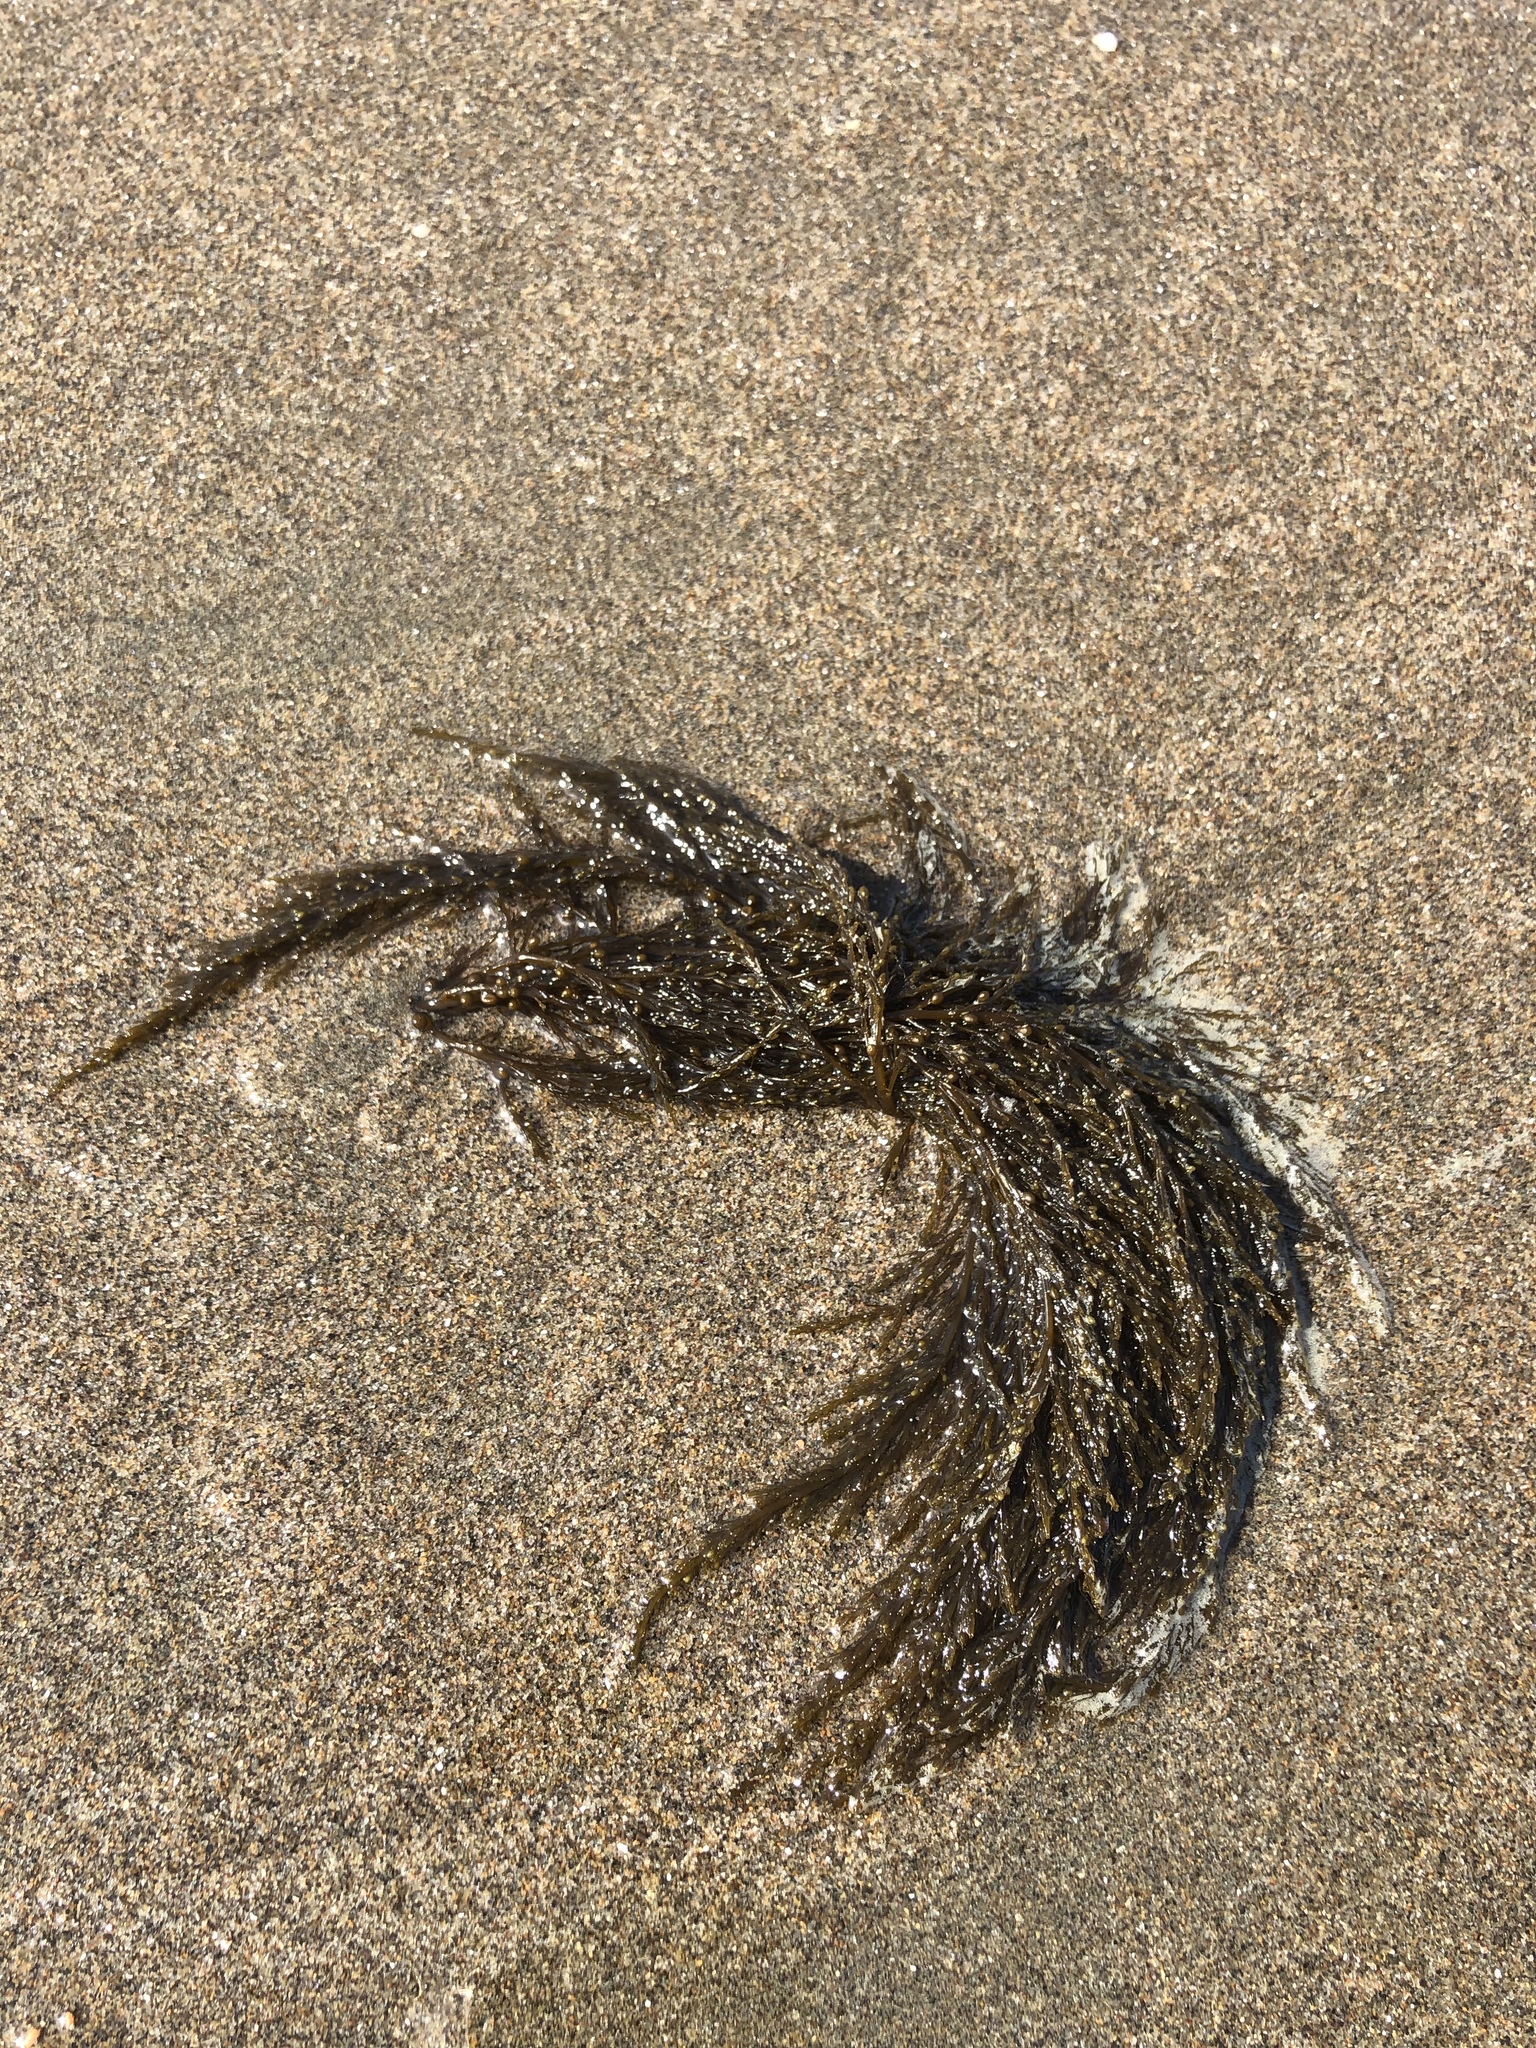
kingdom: Chromista
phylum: Ochrophyta
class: Phaeophyceae
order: Fucales
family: Sargassaceae
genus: Sargassum
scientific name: Sargassum muticum
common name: Japweed
